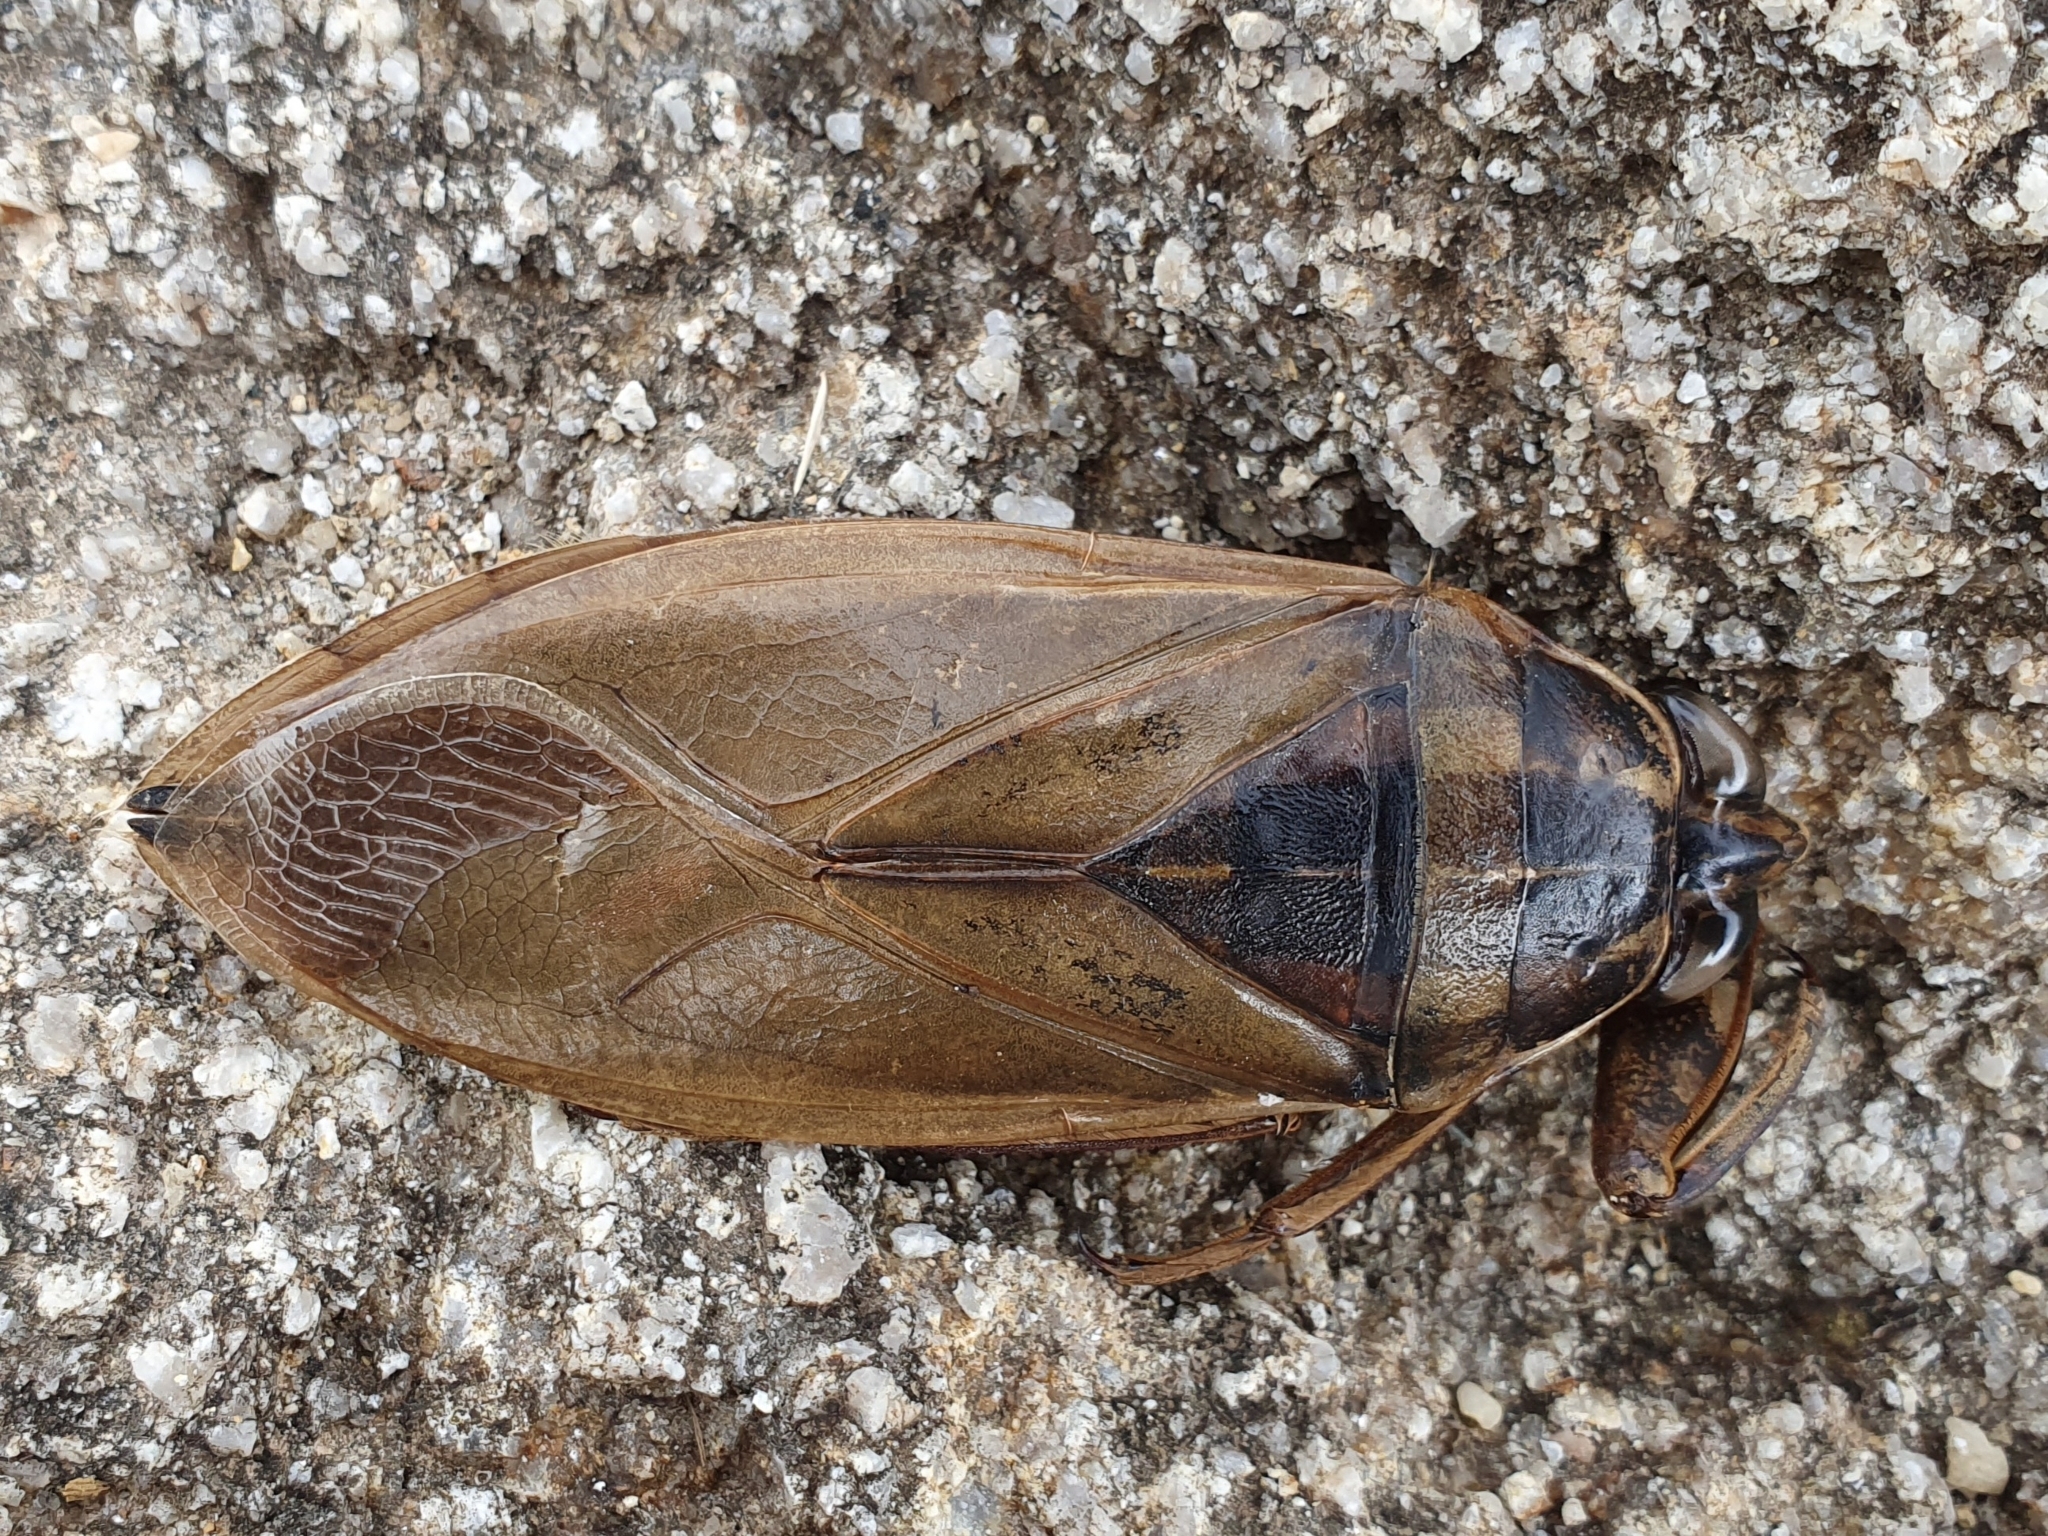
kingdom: Animalia
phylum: Arthropoda
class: Insecta
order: Hemiptera
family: Belostomatidae
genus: Hydrocyrius
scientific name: Hydrocyrius colombiae
